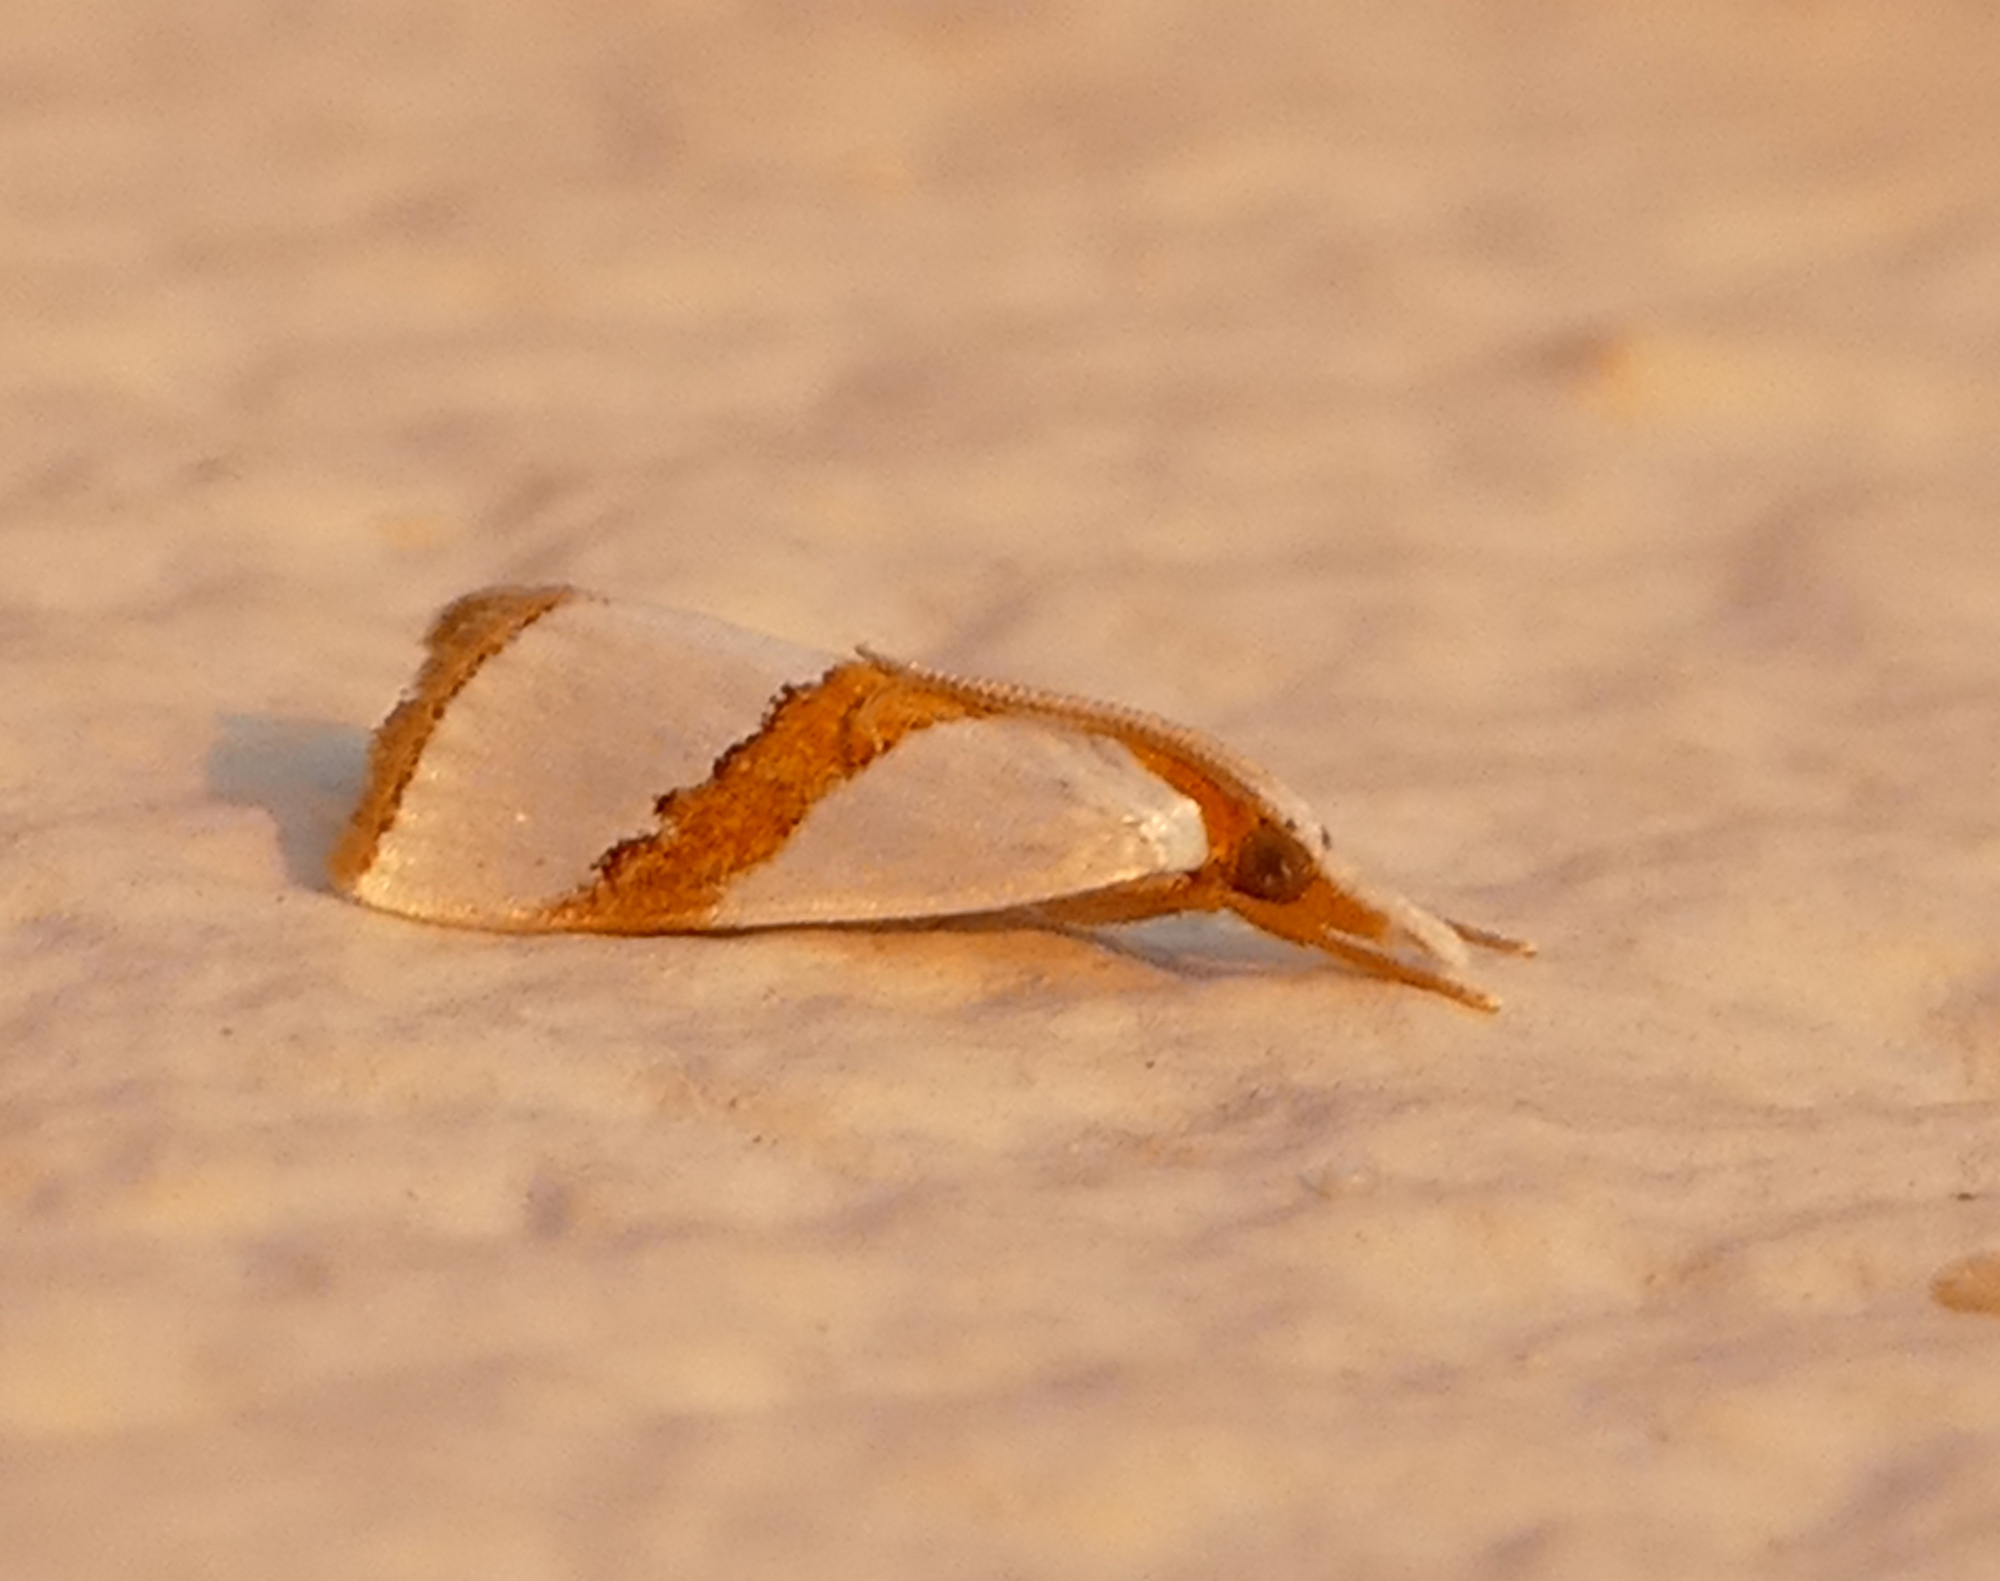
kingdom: Animalia
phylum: Arthropoda
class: Insecta
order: Lepidoptera
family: Crambidae
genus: Vaxi
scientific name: Vaxi critica
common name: Straight-lined vaxi moth
